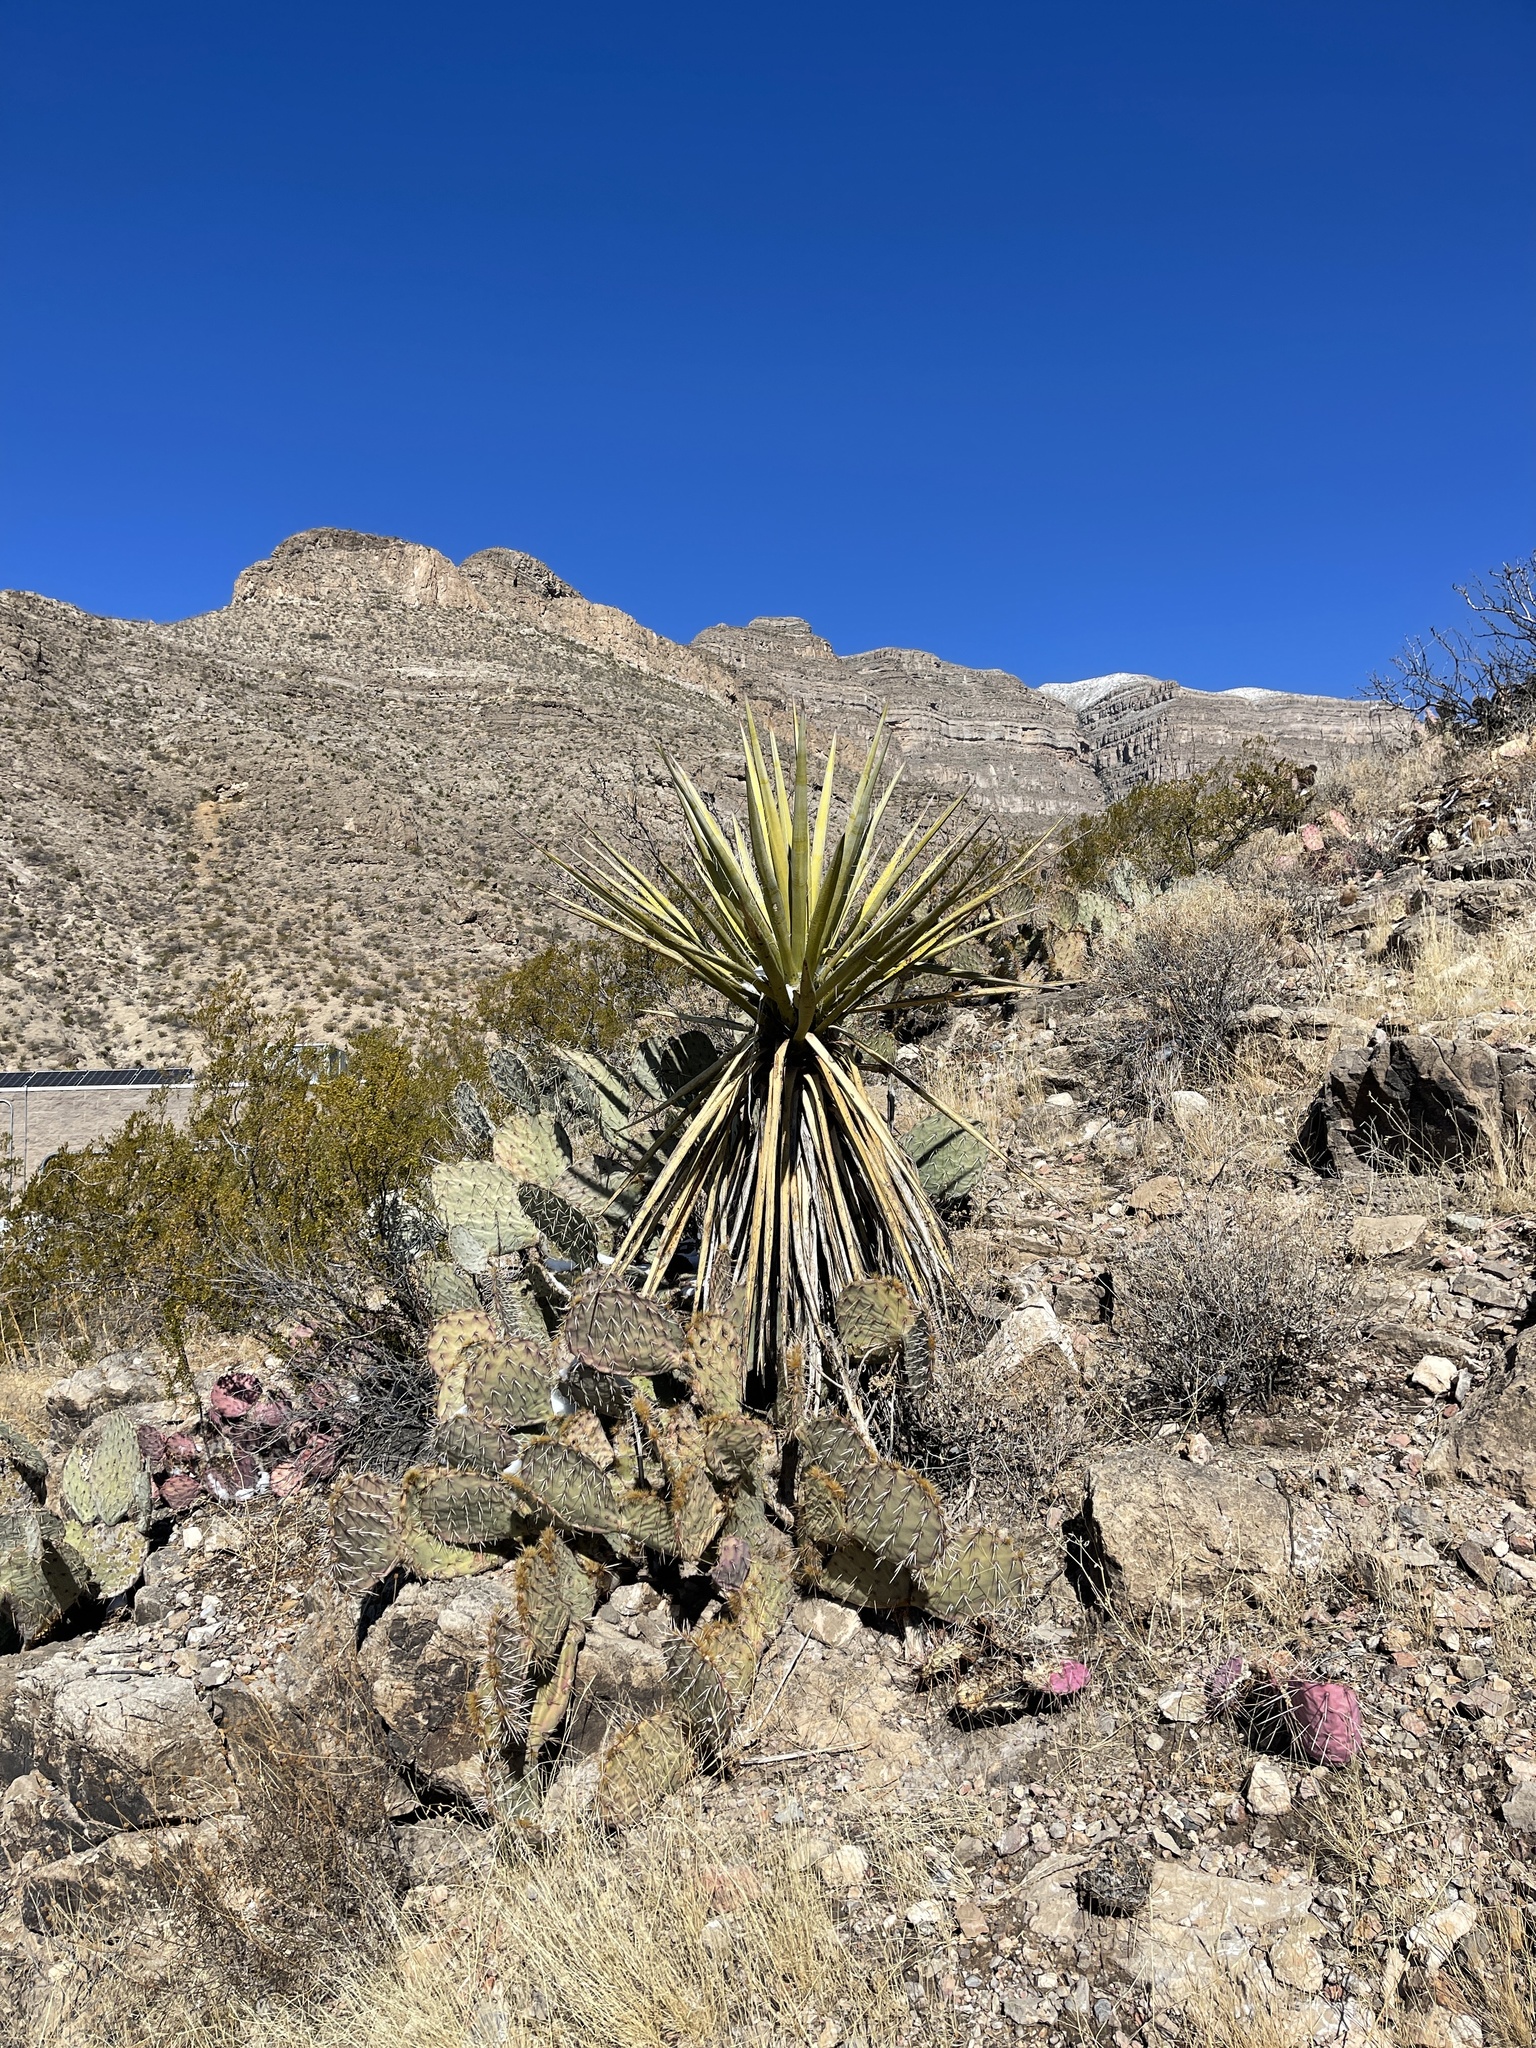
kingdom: Plantae
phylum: Tracheophyta
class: Liliopsida
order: Asparagales
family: Asparagaceae
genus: Yucca
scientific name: Yucca treculiana
